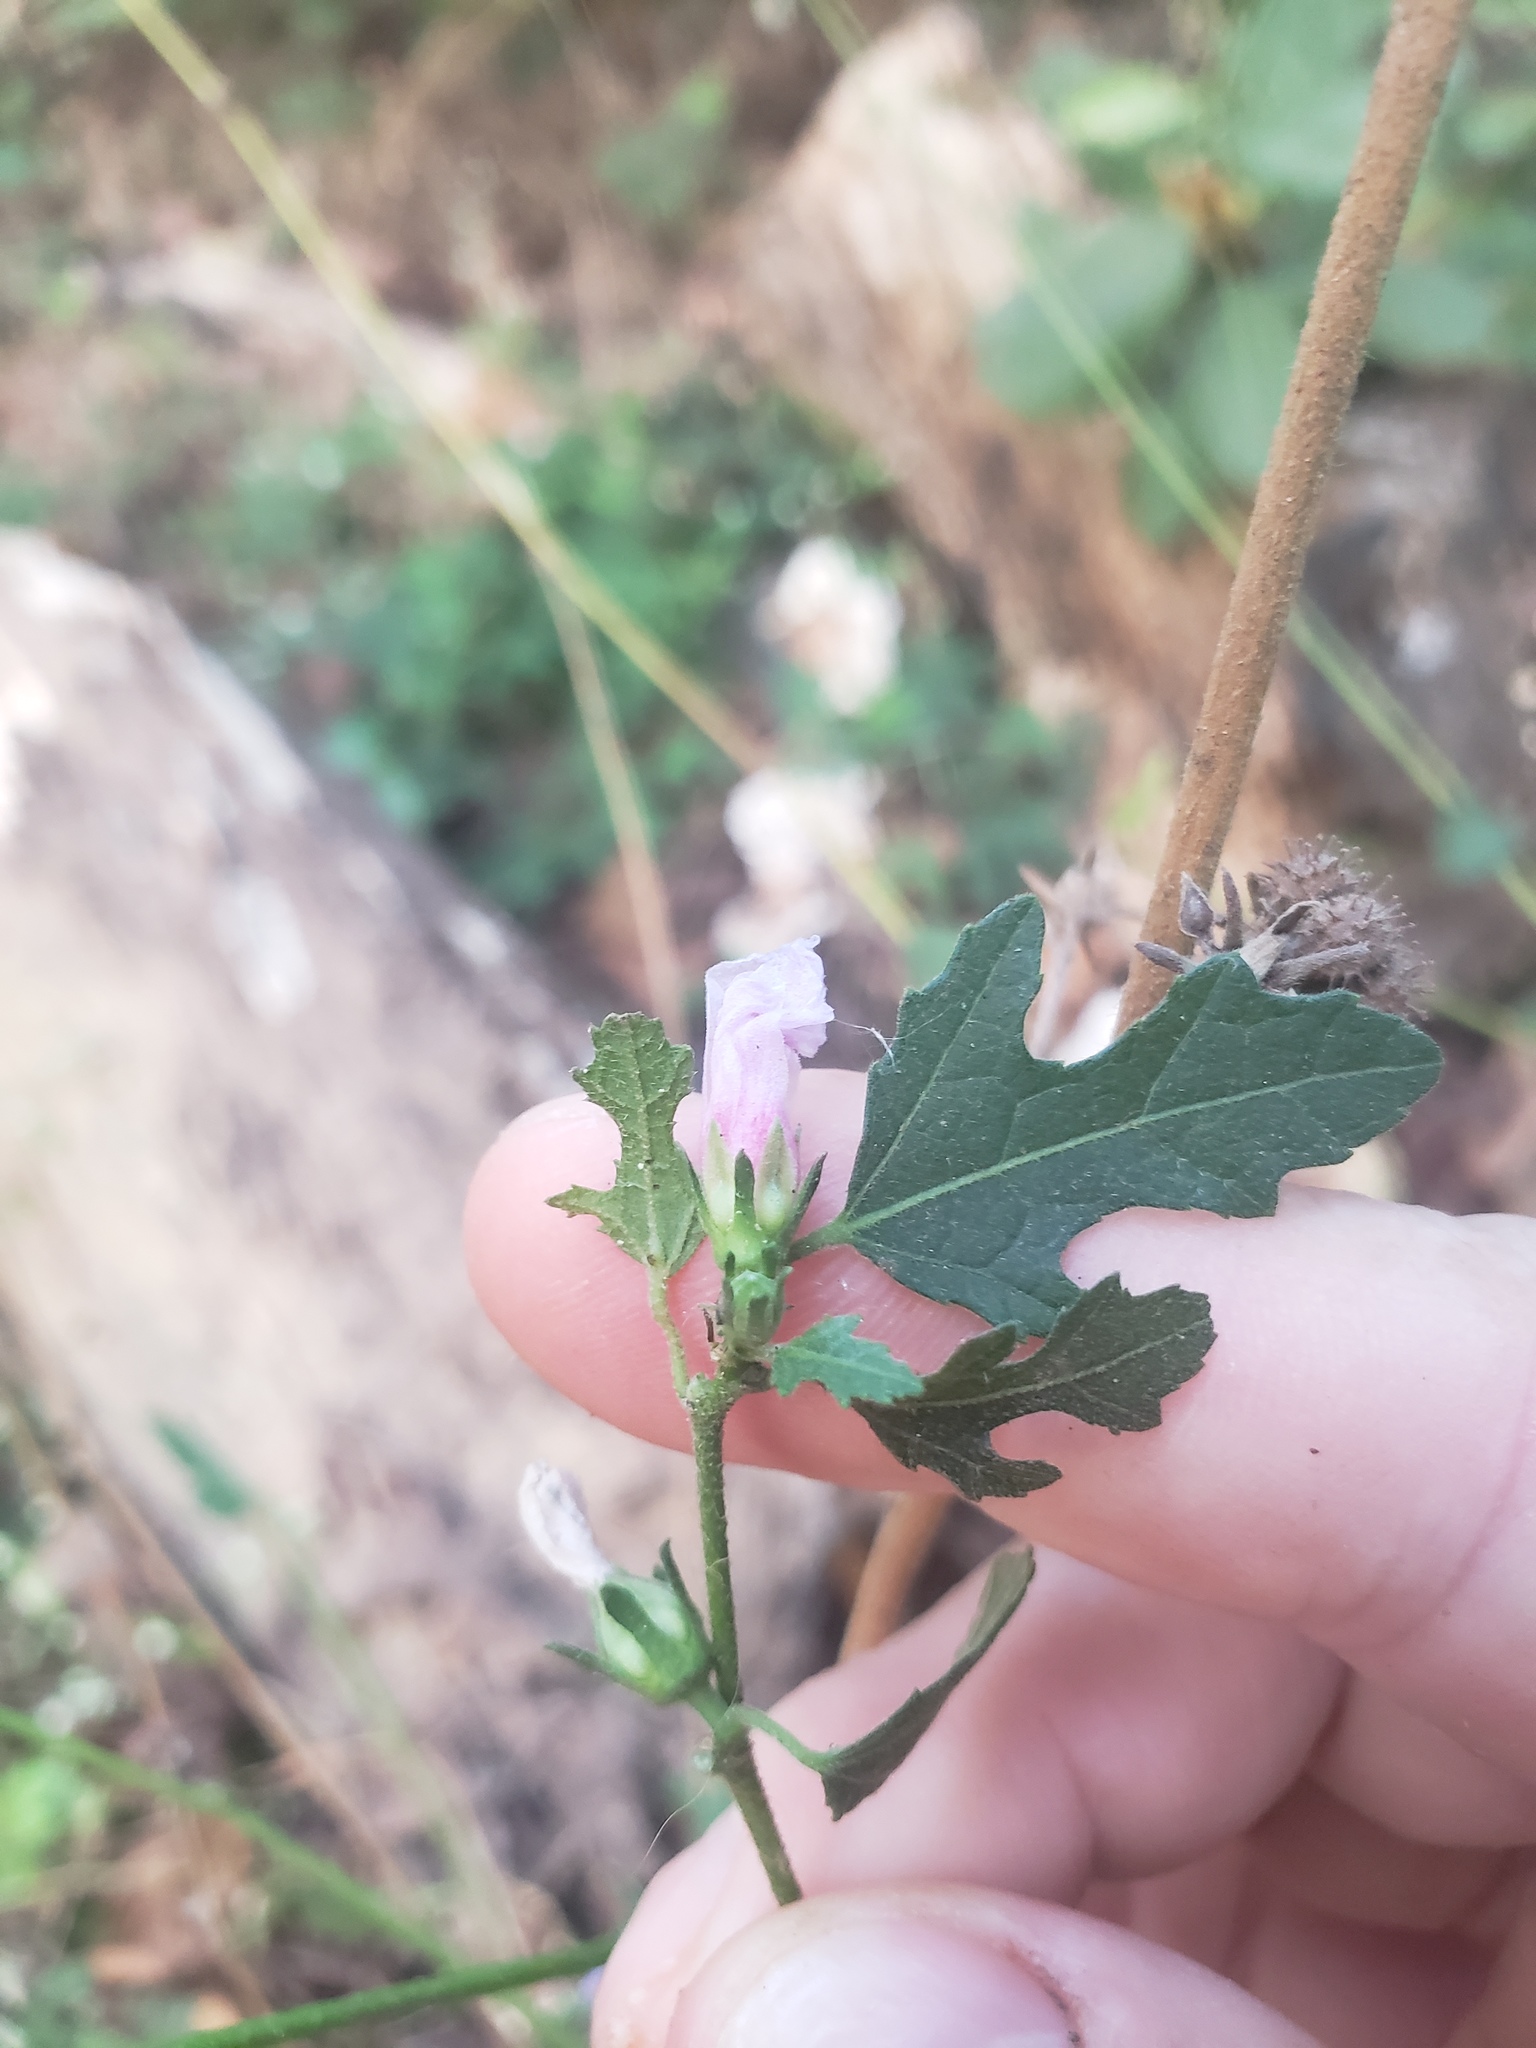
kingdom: Plantae
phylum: Tracheophyta
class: Magnoliopsida
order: Malvales
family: Malvaceae
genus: Urena
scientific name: Urena procumbens
